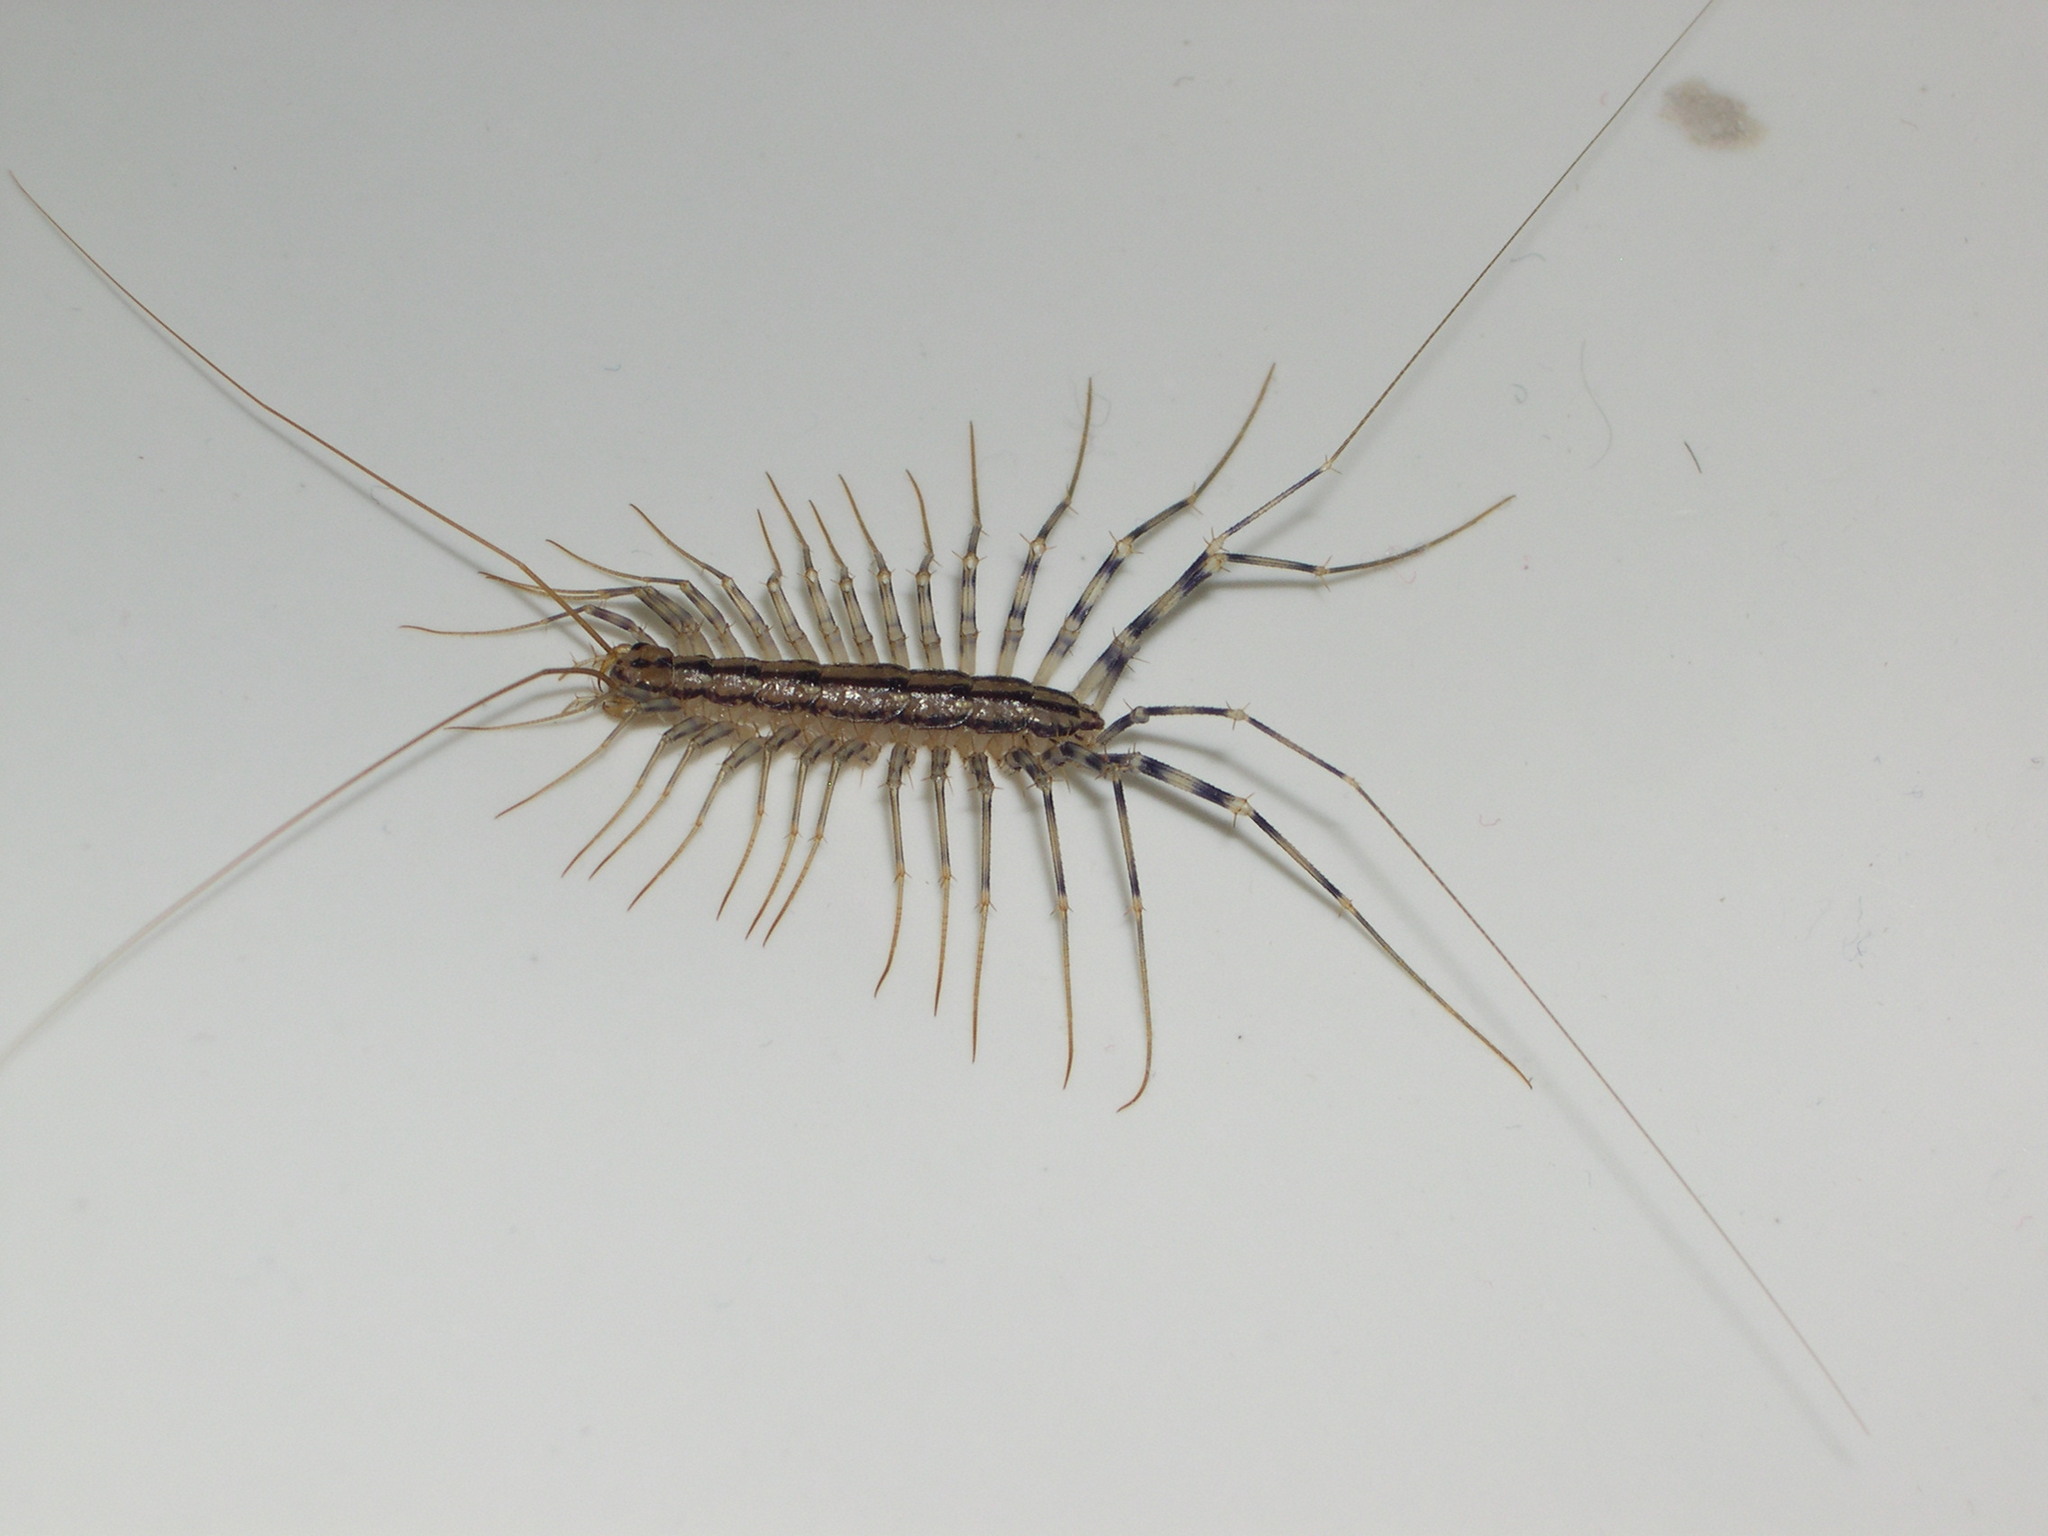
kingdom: Animalia
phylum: Arthropoda
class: Chilopoda
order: Scutigeromorpha
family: Scutigeridae
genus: Scutigera
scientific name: Scutigera coleoptrata
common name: House centipede
